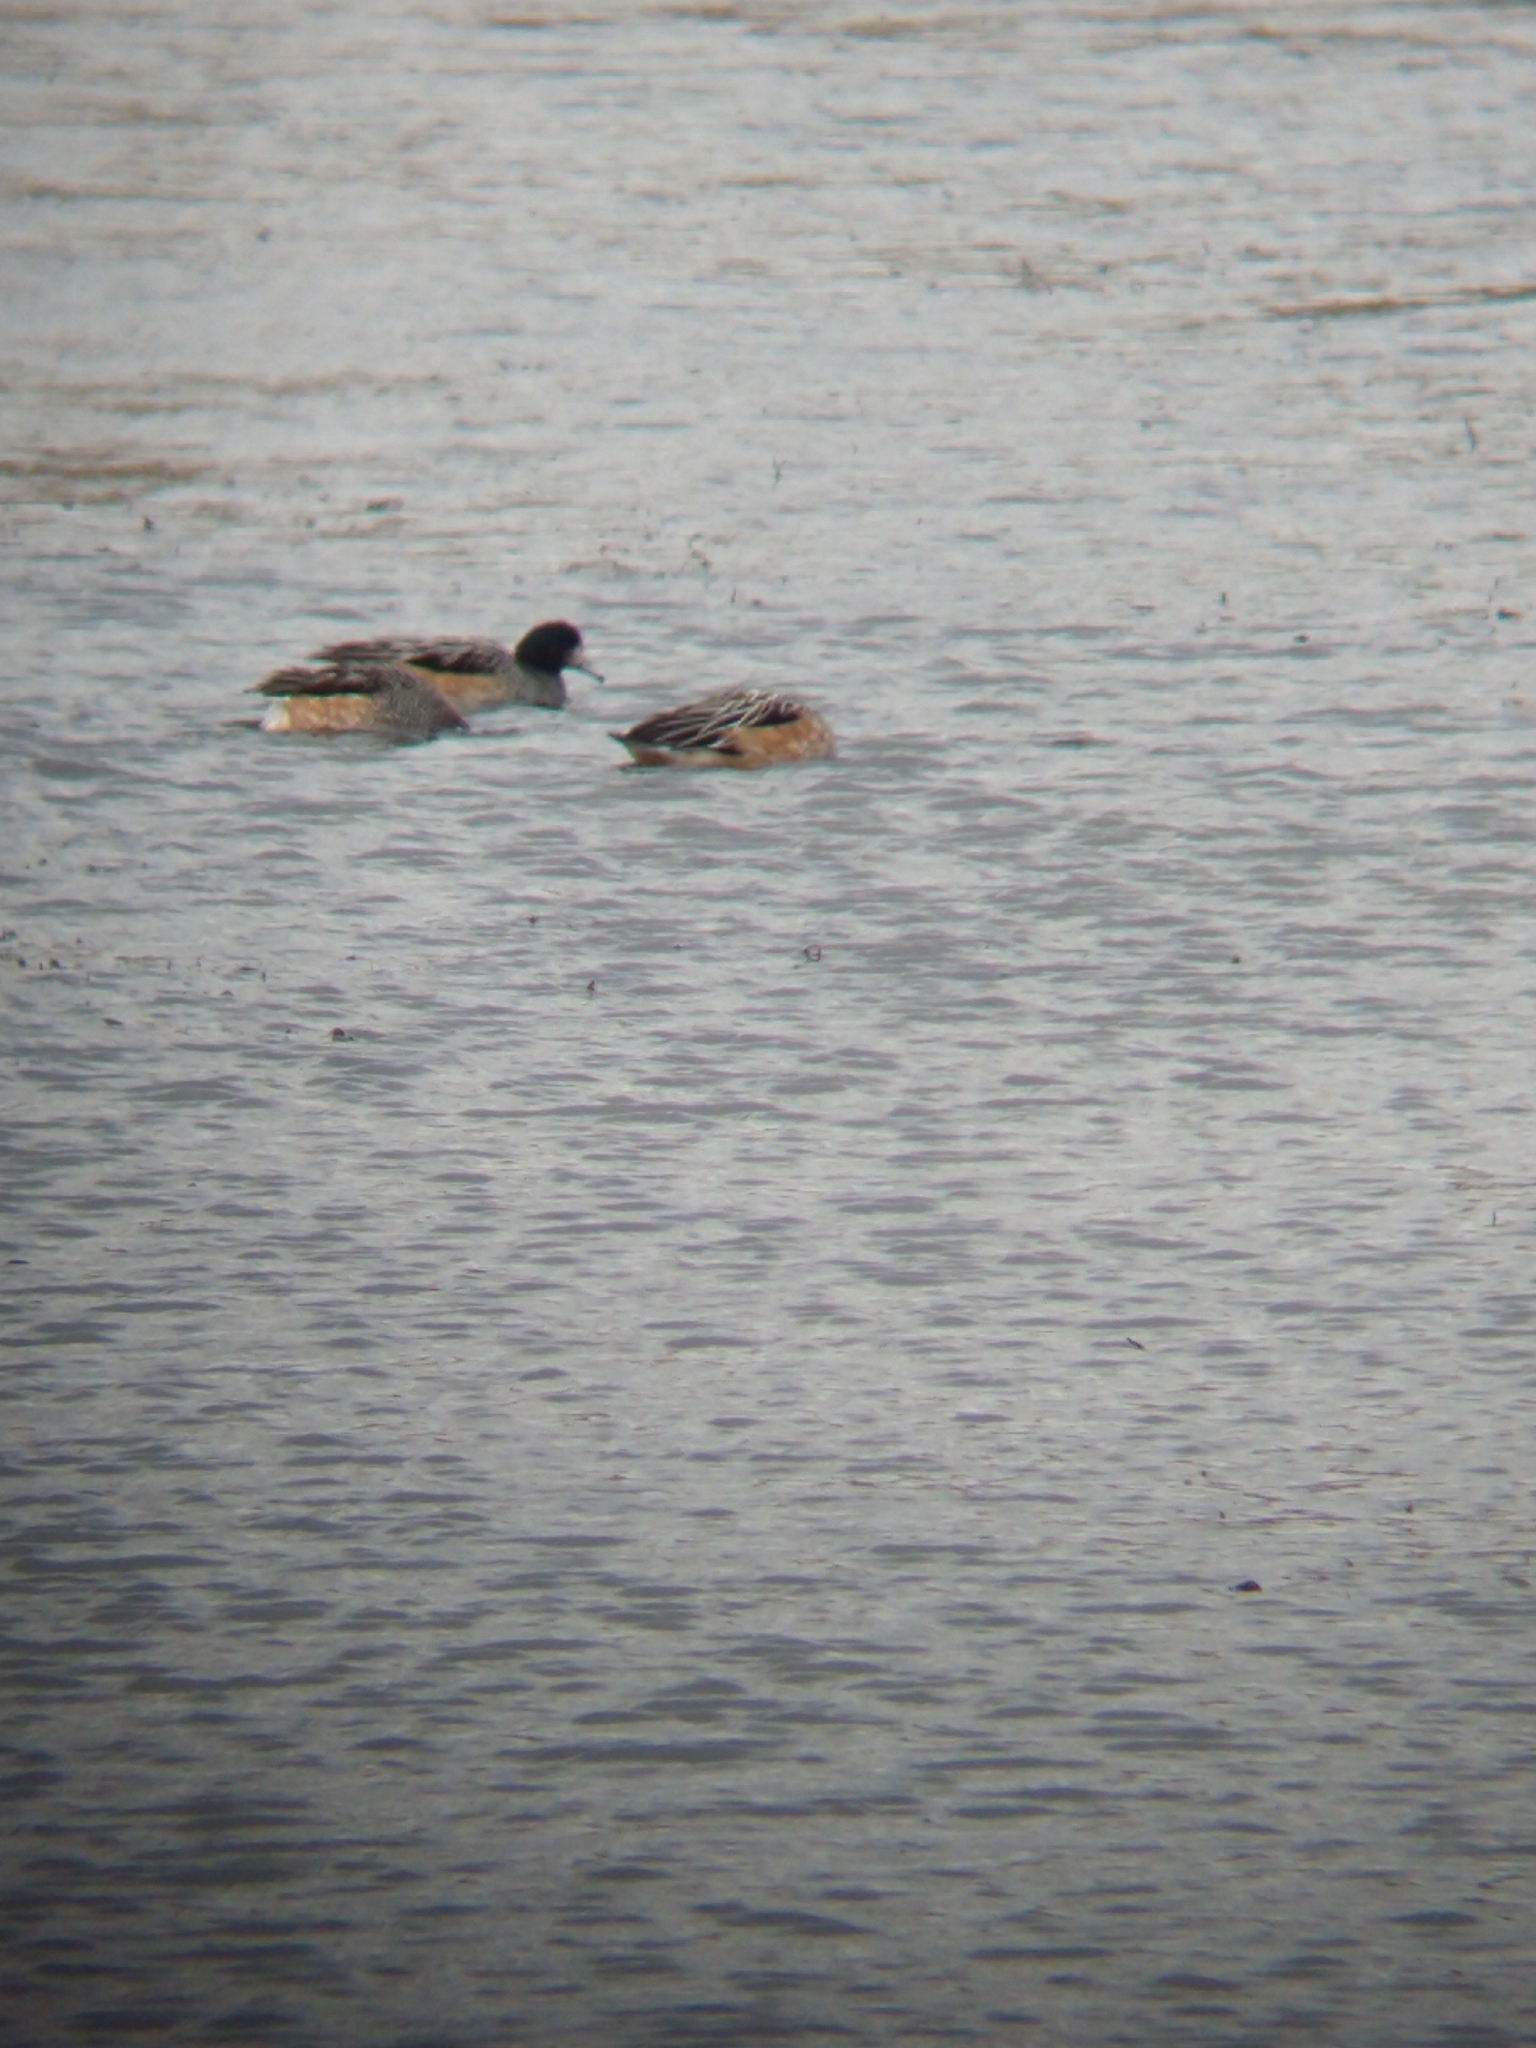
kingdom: Animalia
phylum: Chordata
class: Aves
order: Anseriformes
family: Anatidae
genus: Mareca
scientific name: Mareca sibilatrix
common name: Chiloe wigeon
